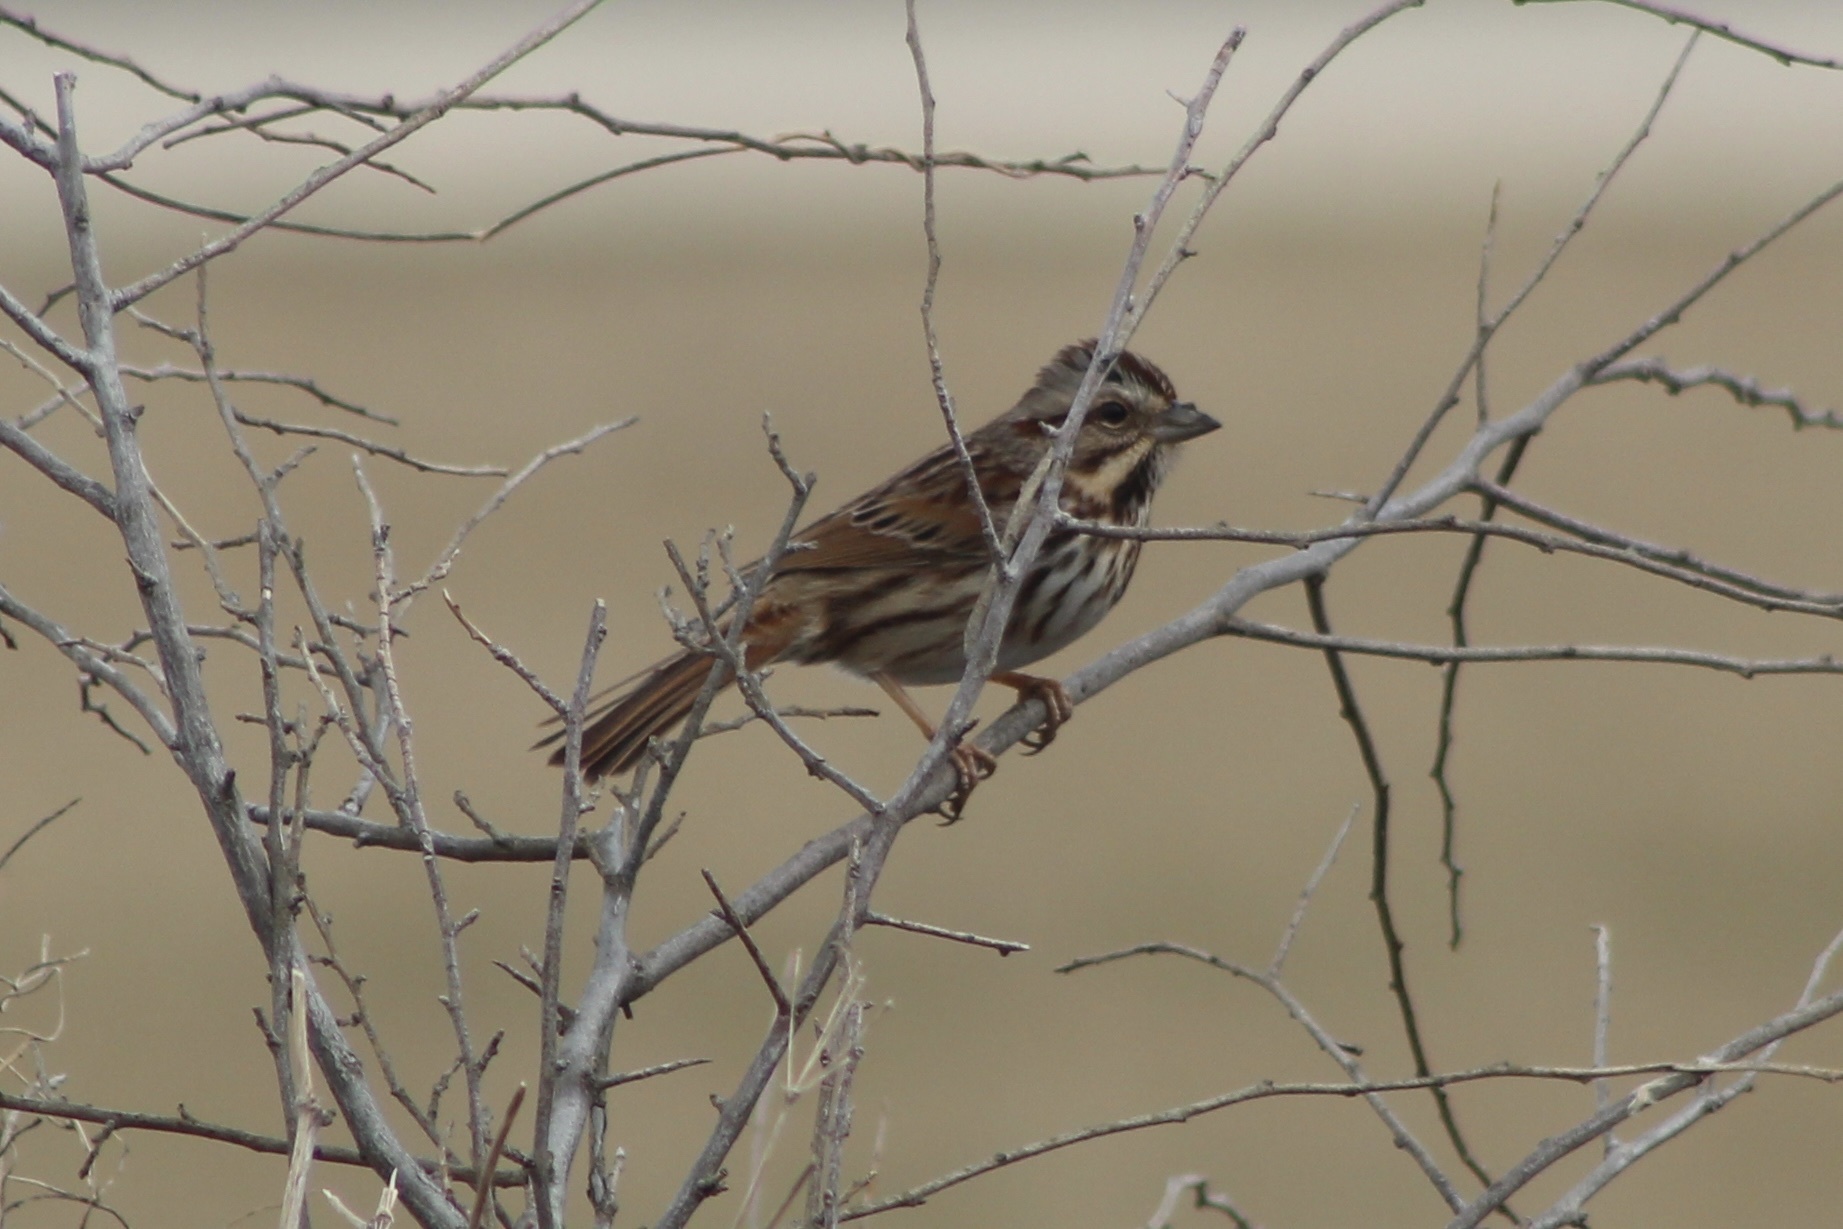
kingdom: Animalia
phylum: Chordata
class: Aves
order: Passeriformes
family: Passerellidae
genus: Melospiza
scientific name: Melospiza melodia
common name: Song sparrow
